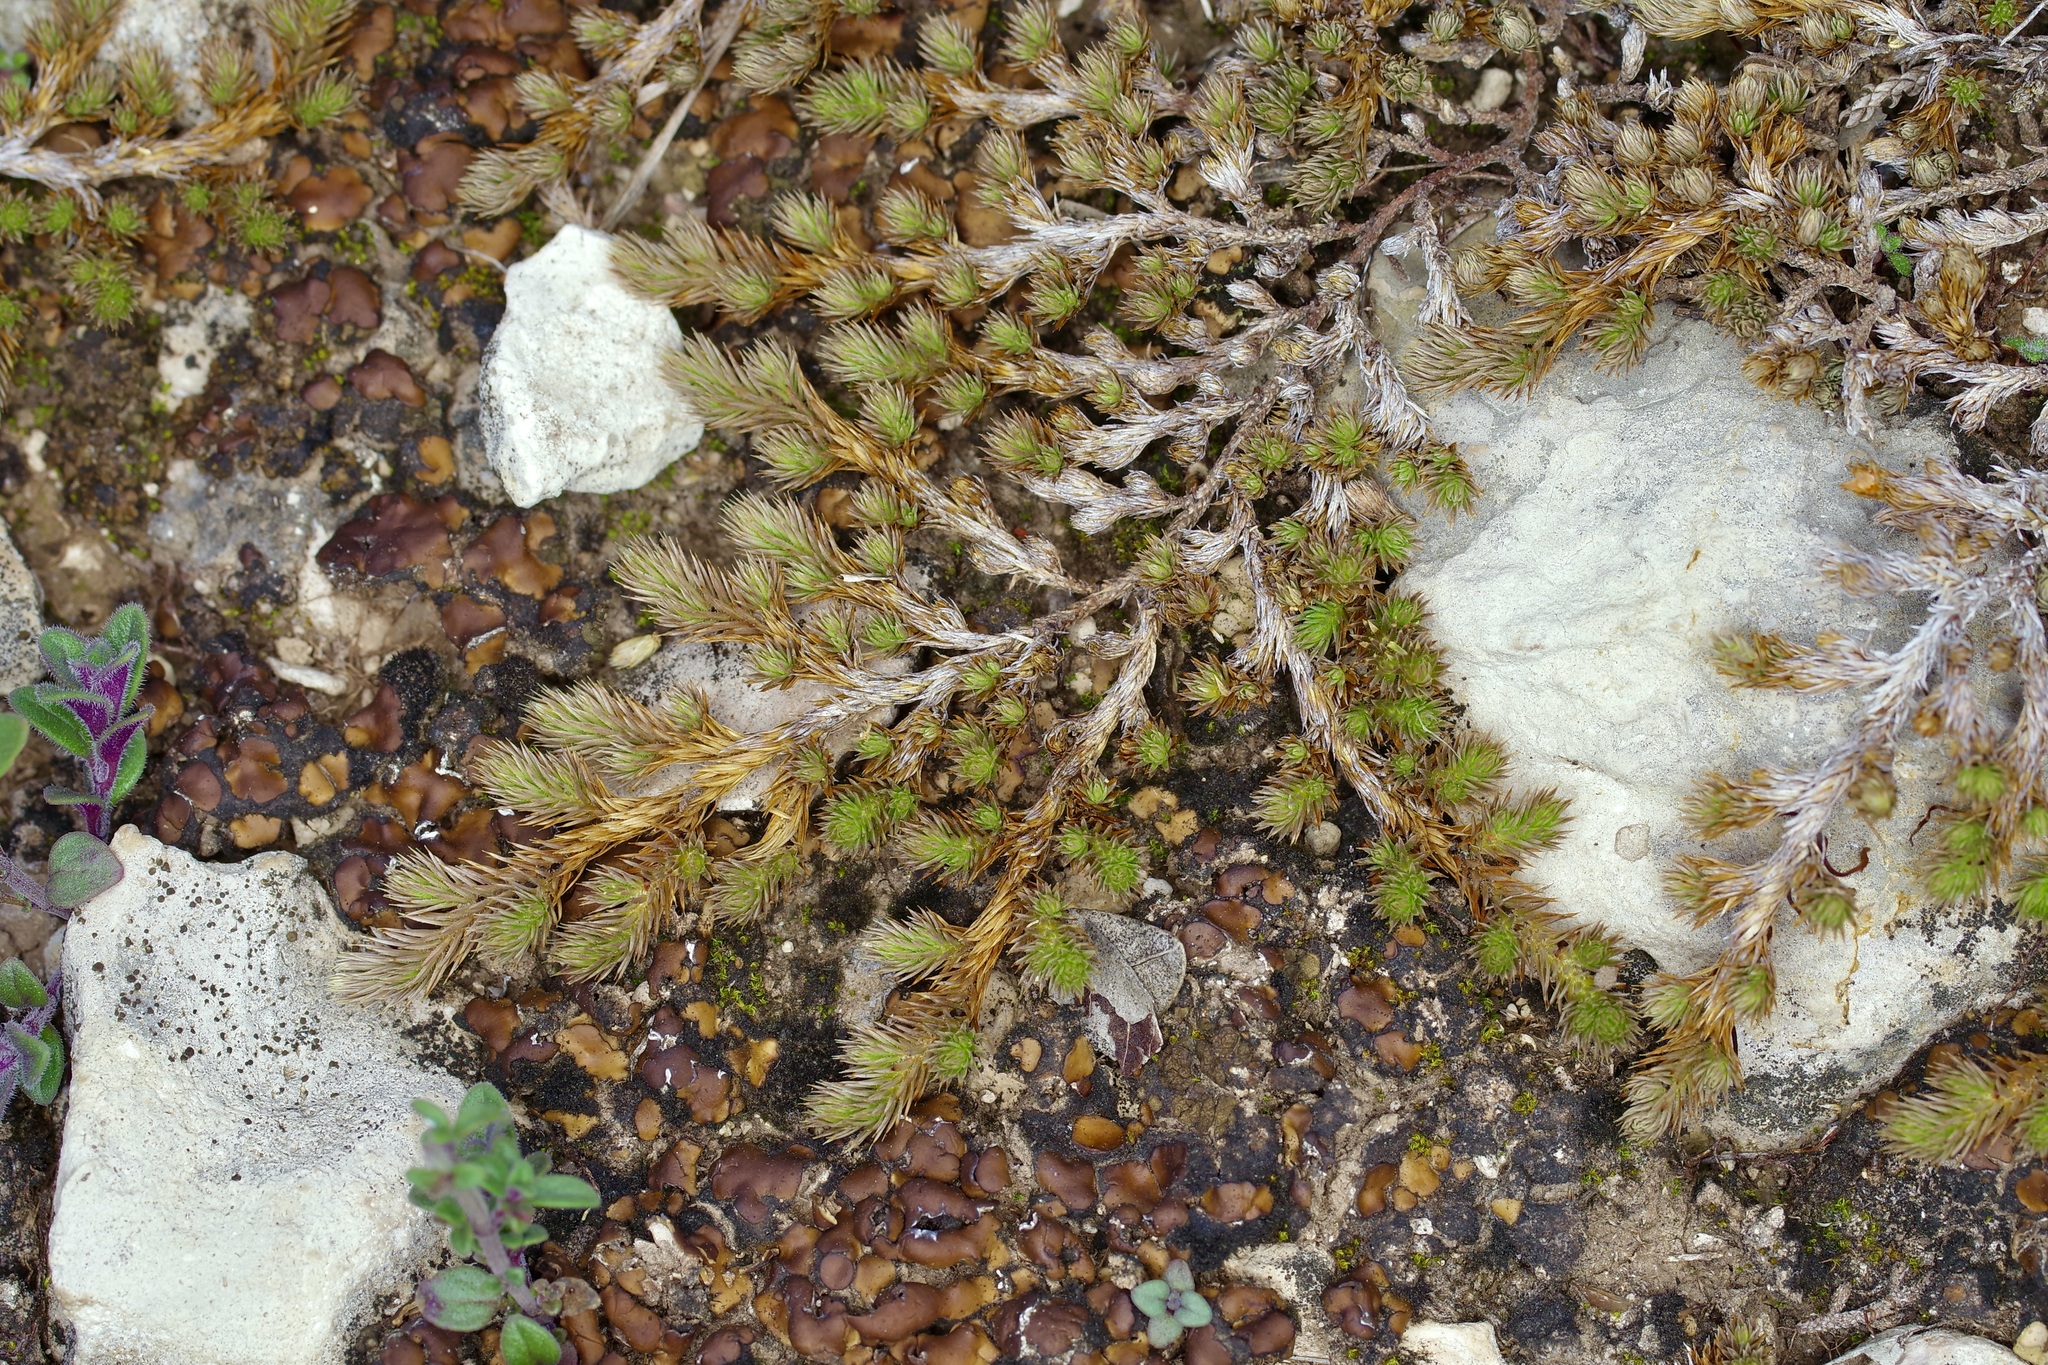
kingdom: Plantae
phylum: Tracheophyta
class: Lycopodiopsida
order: Selaginellales
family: Selaginellaceae
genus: Selaginella
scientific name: Selaginella peruviana
